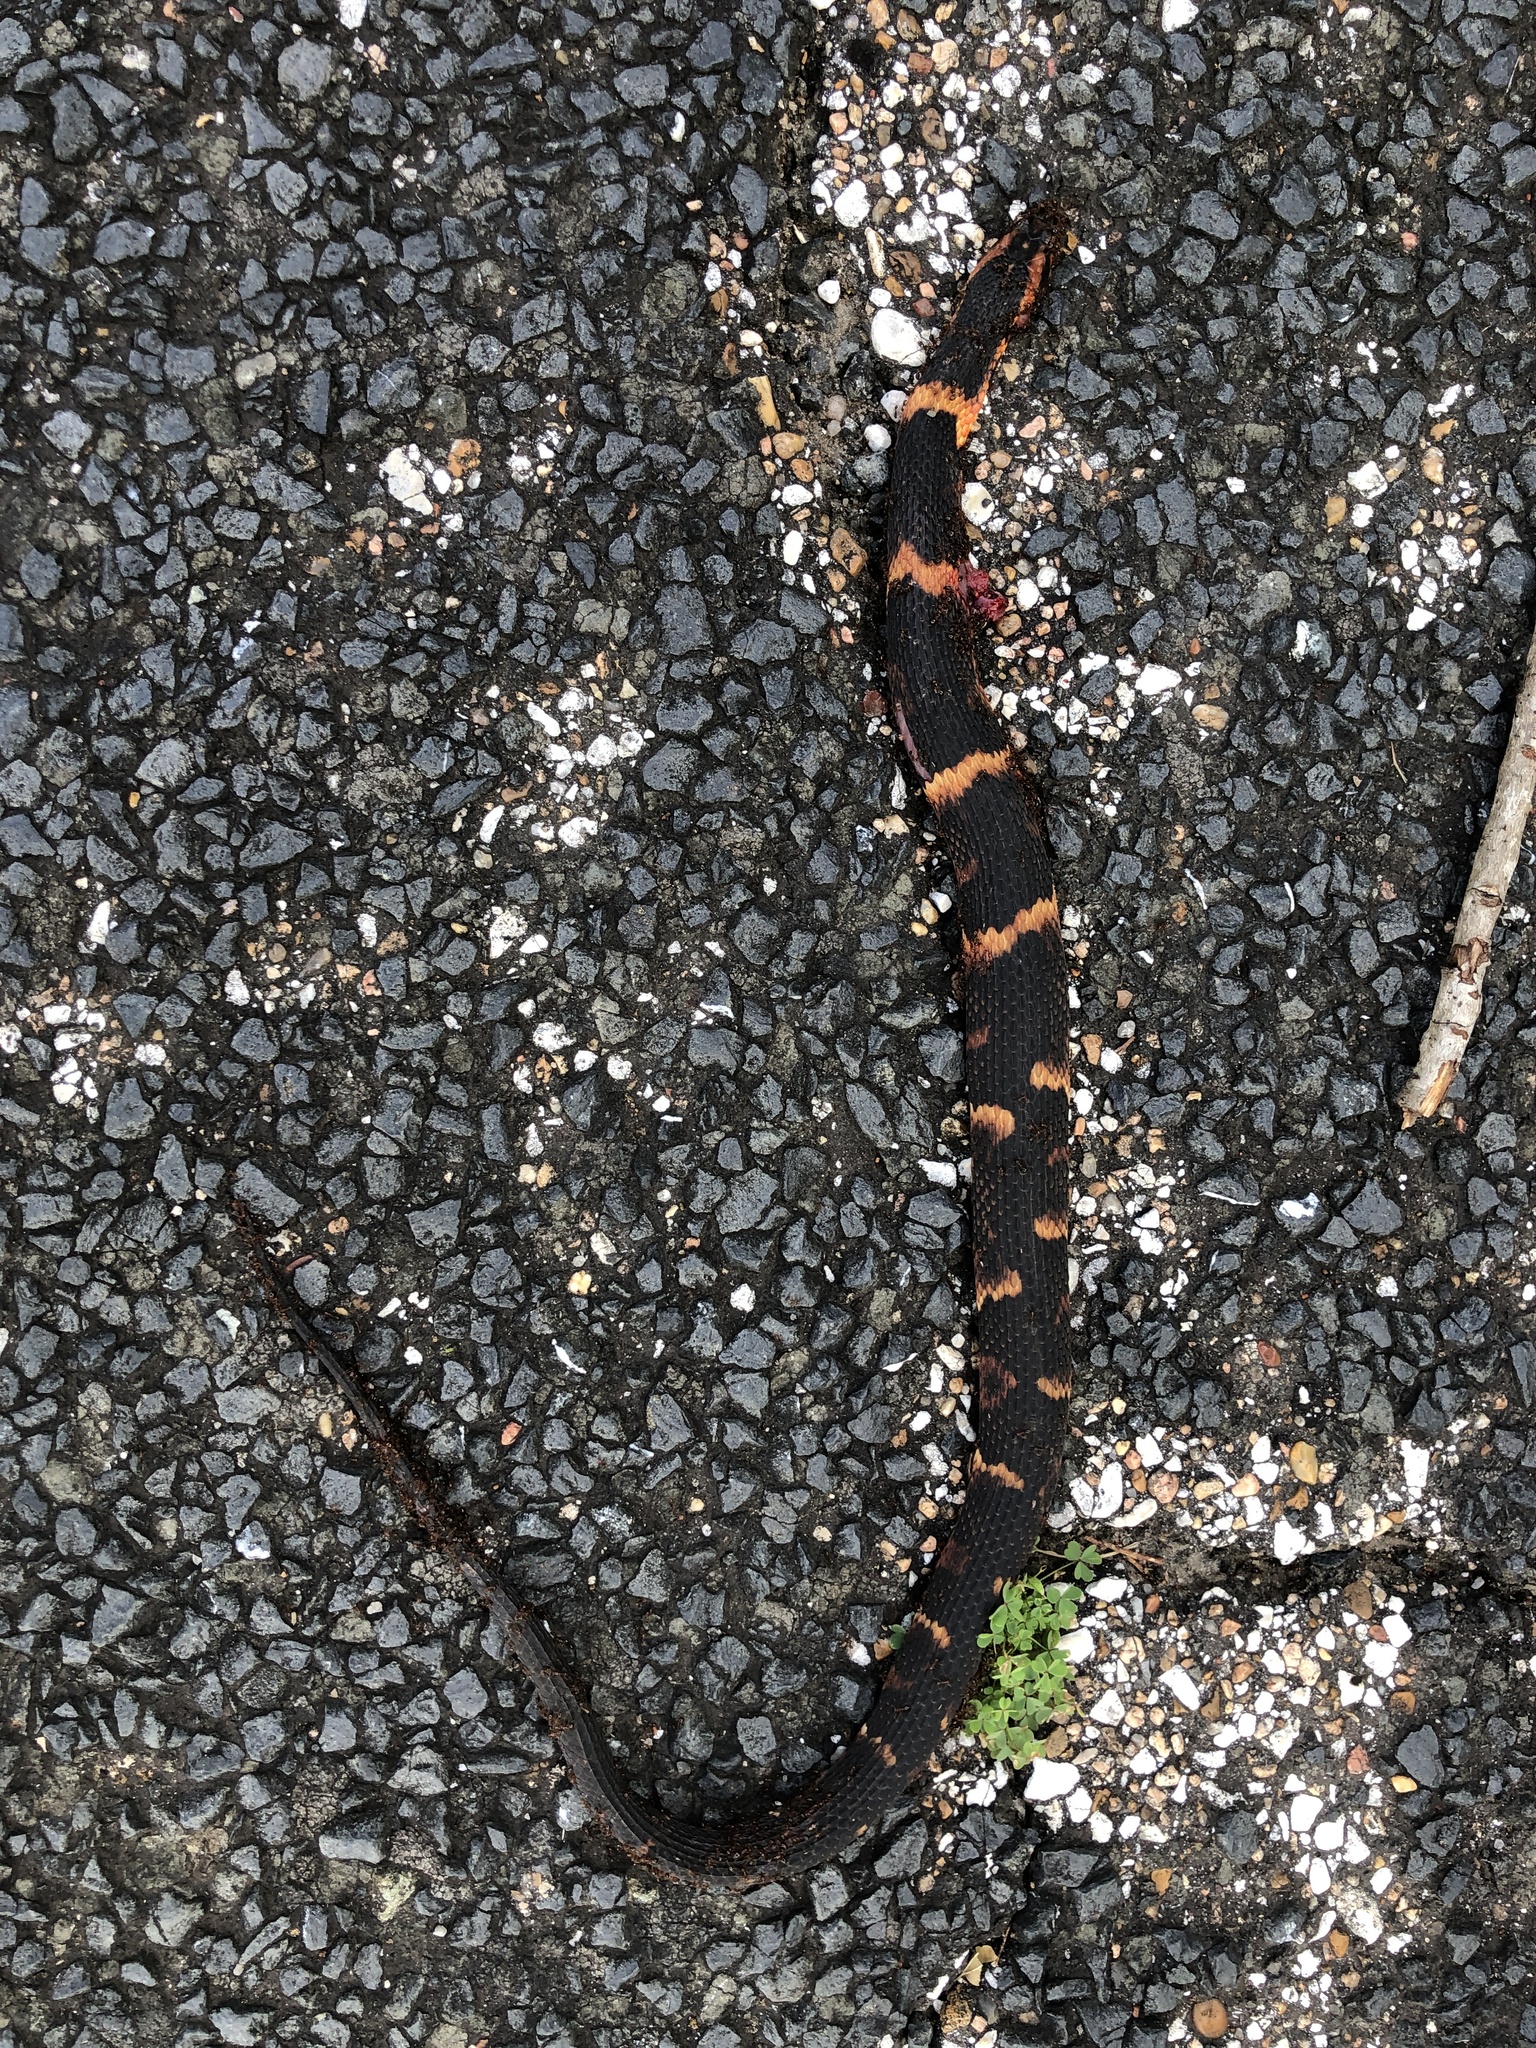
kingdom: Animalia
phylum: Chordata
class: Squamata
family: Colubridae
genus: Nerodia
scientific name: Nerodia fasciata
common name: Southern water snake
